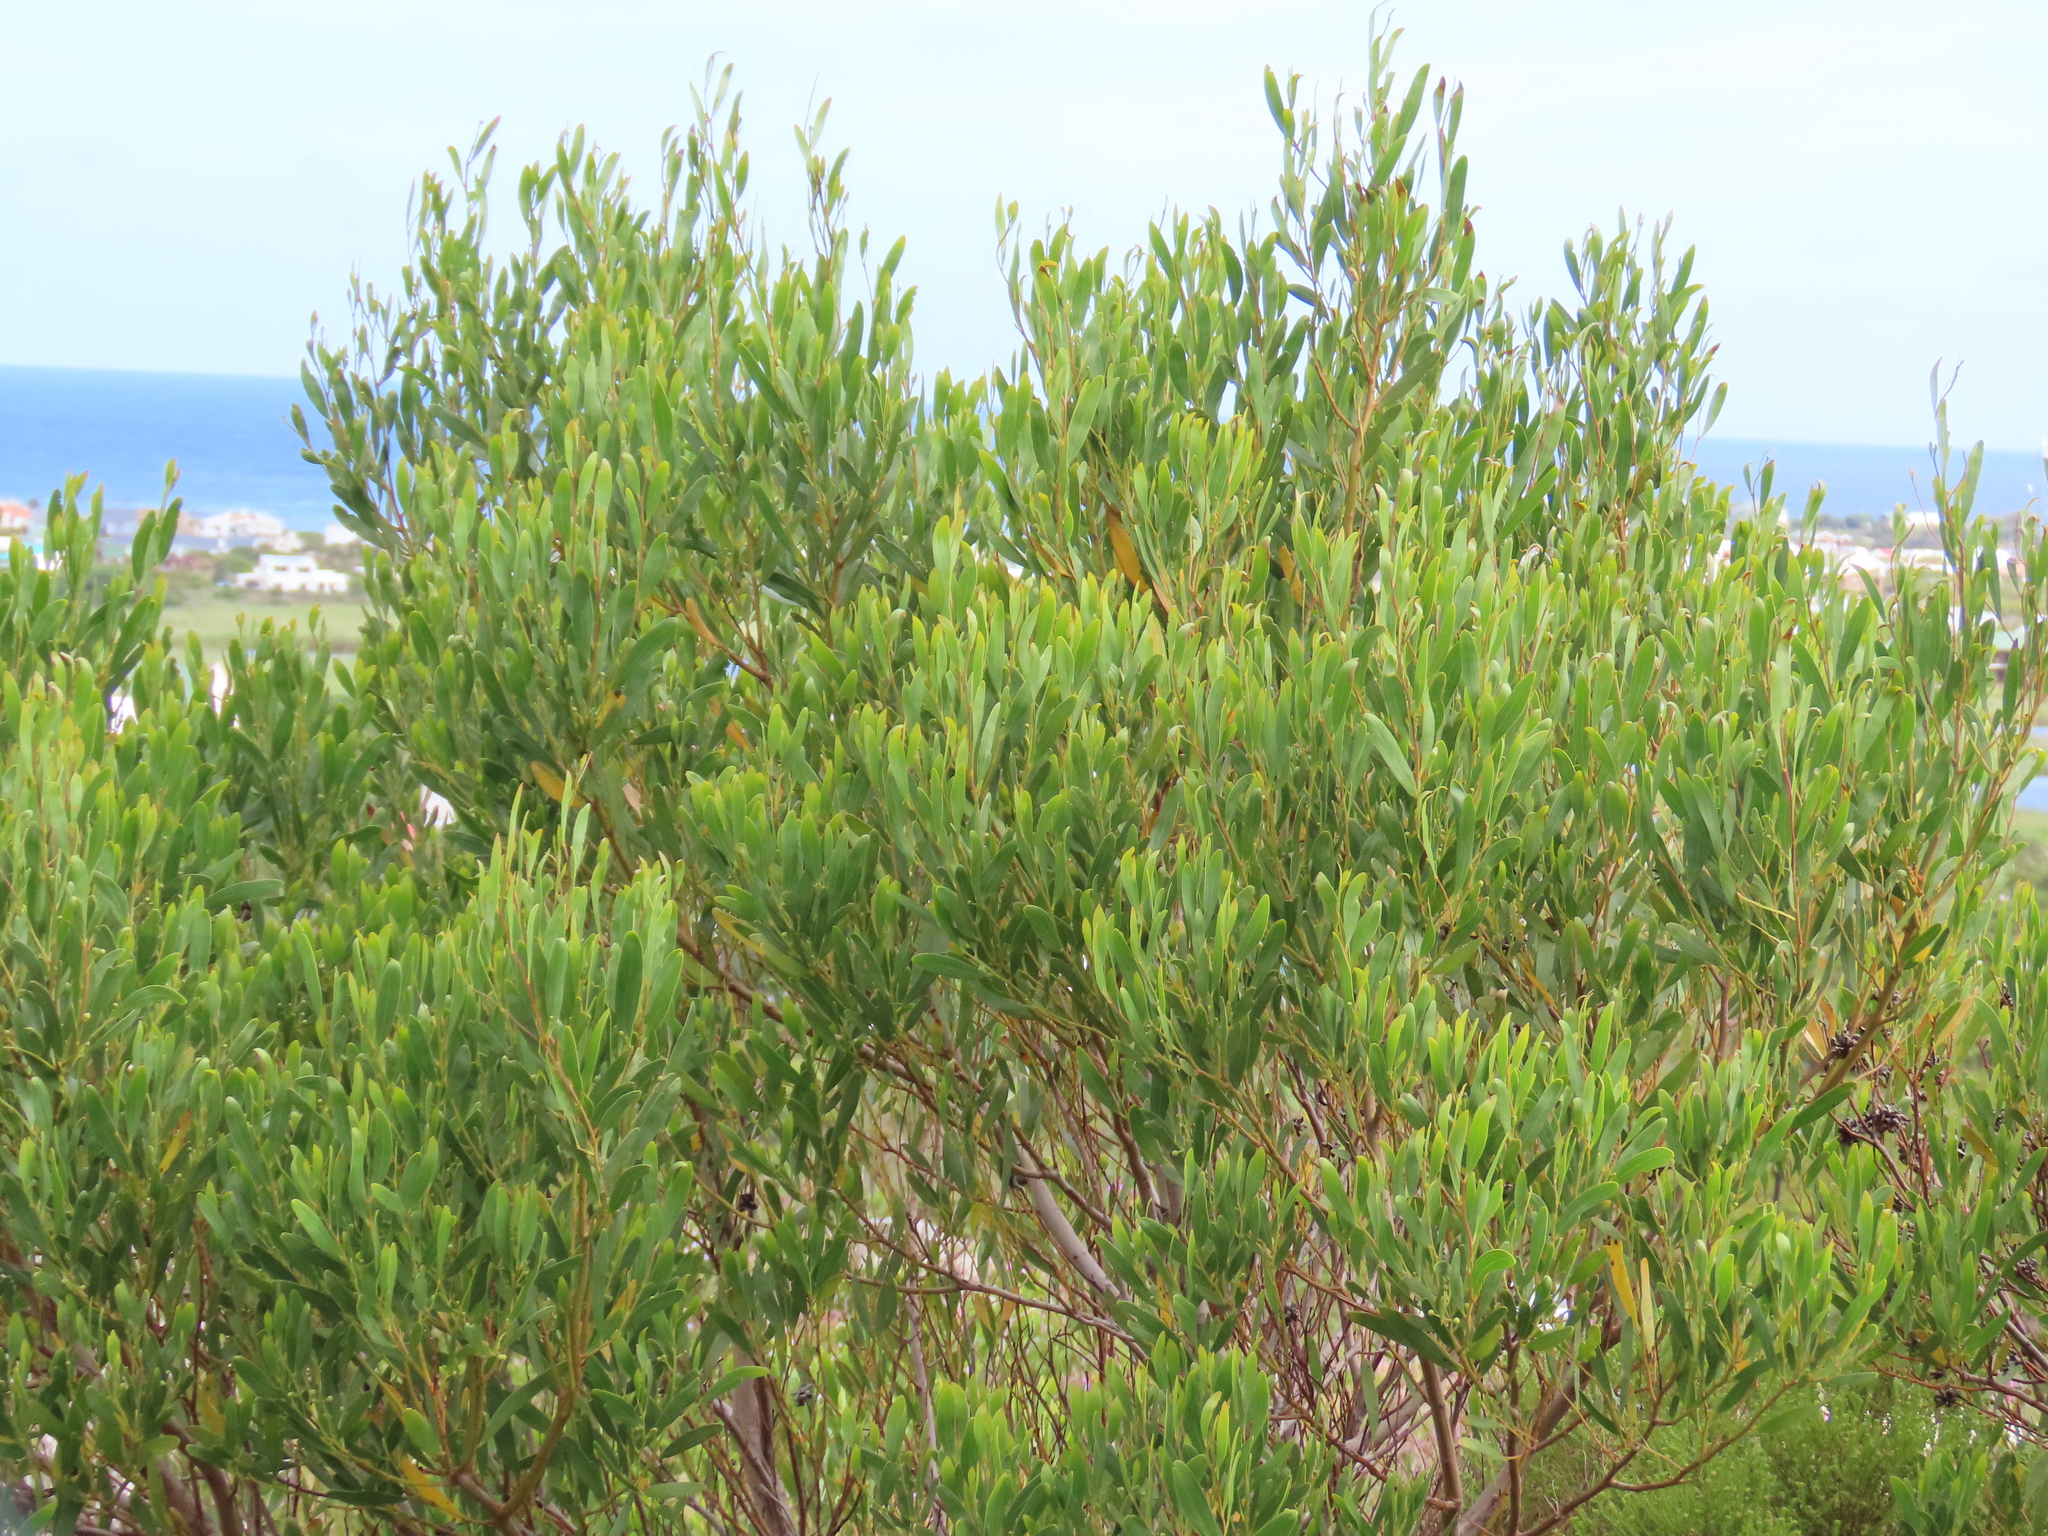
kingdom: Plantae
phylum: Tracheophyta
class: Magnoliopsida
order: Fabales
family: Fabaceae
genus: Acacia
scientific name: Acacia cyclops
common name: Coastal wattle
